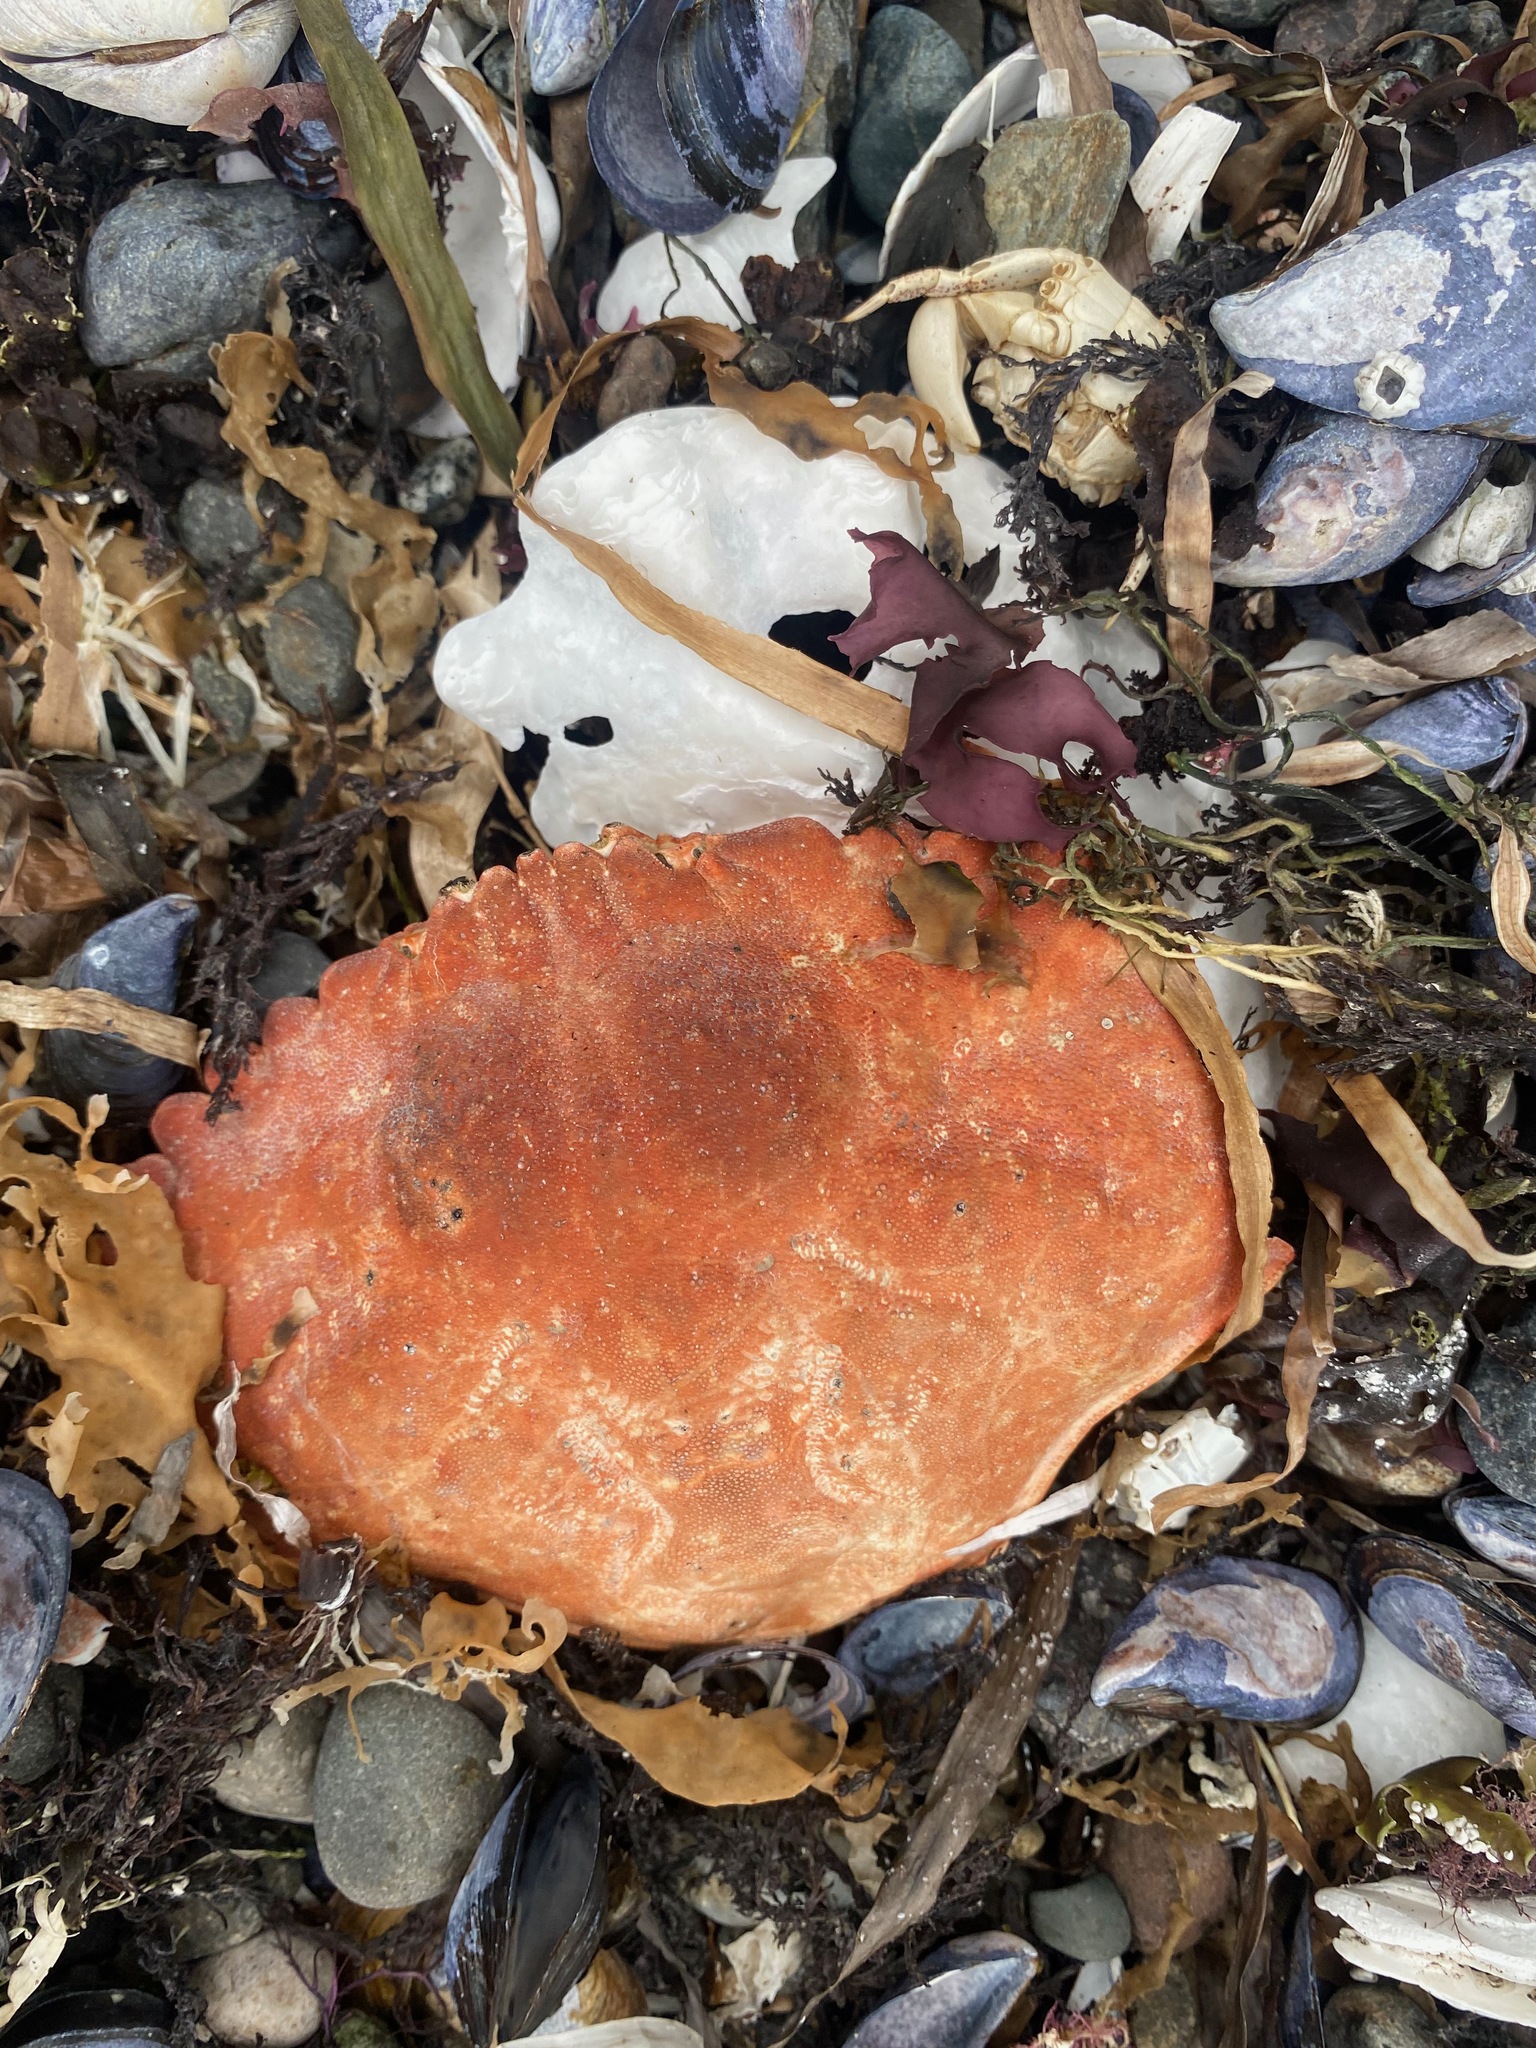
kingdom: Animalia
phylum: Arthropoda
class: Malacostraca
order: Decapoda
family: Cancridae
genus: Cancer
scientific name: Cancer productus
